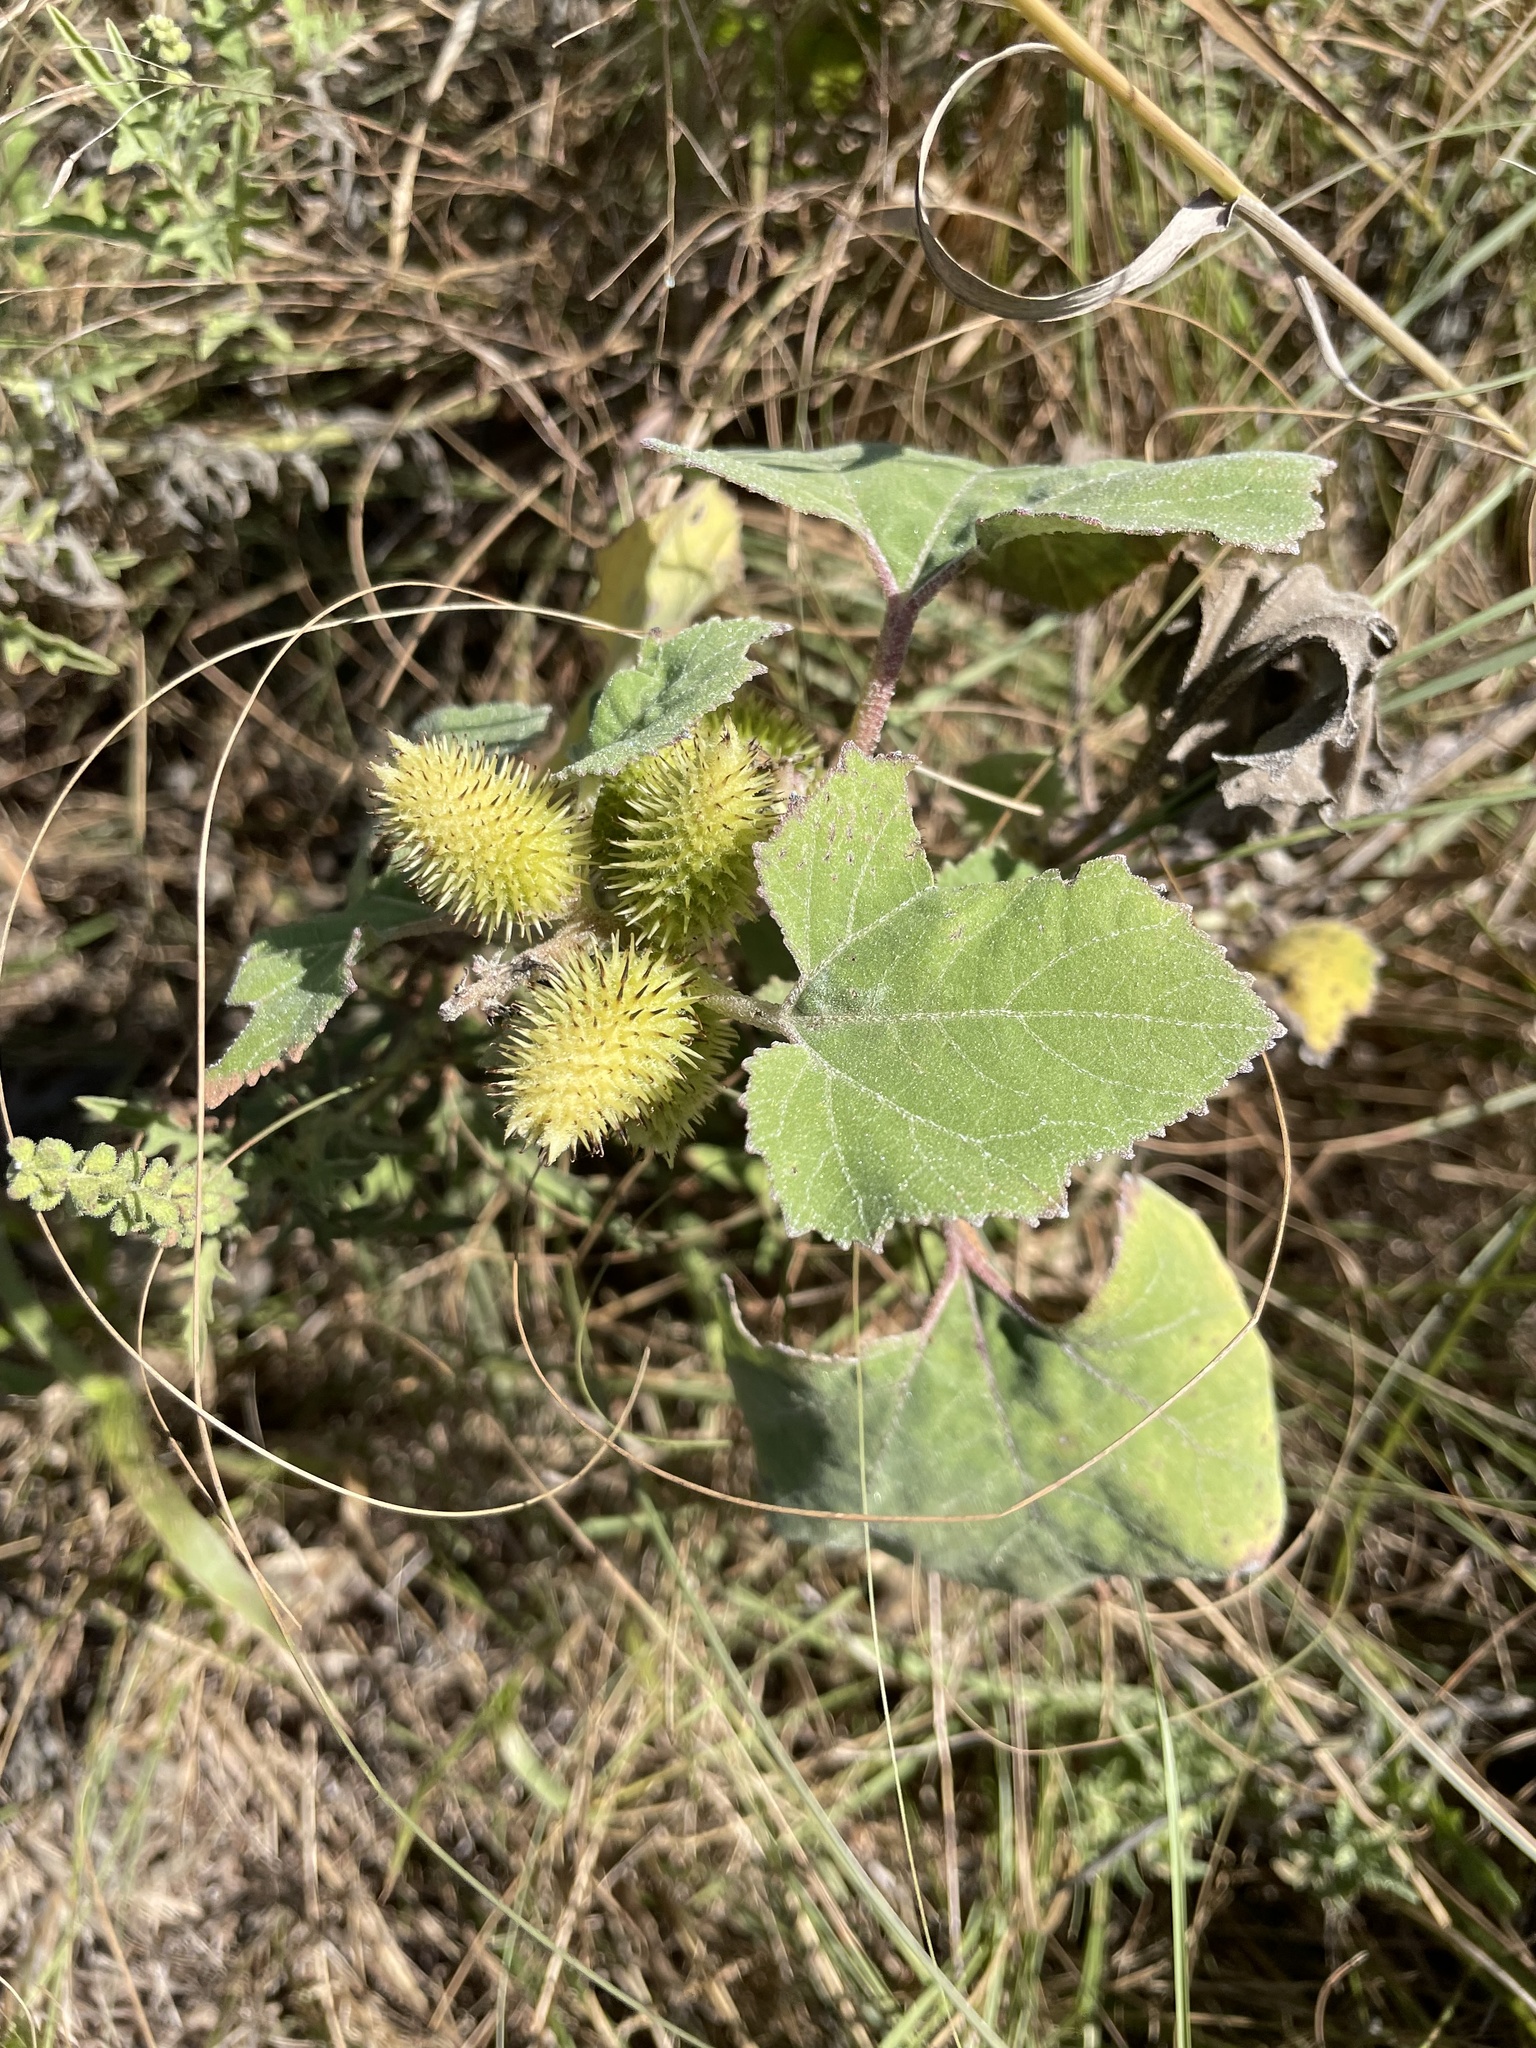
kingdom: Plantae
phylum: Tracheophyta
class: Magnoliopsida
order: Asterales
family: Asteraceae
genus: Xanthium
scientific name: Xanthium strumarium
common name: Rough cocklebur
